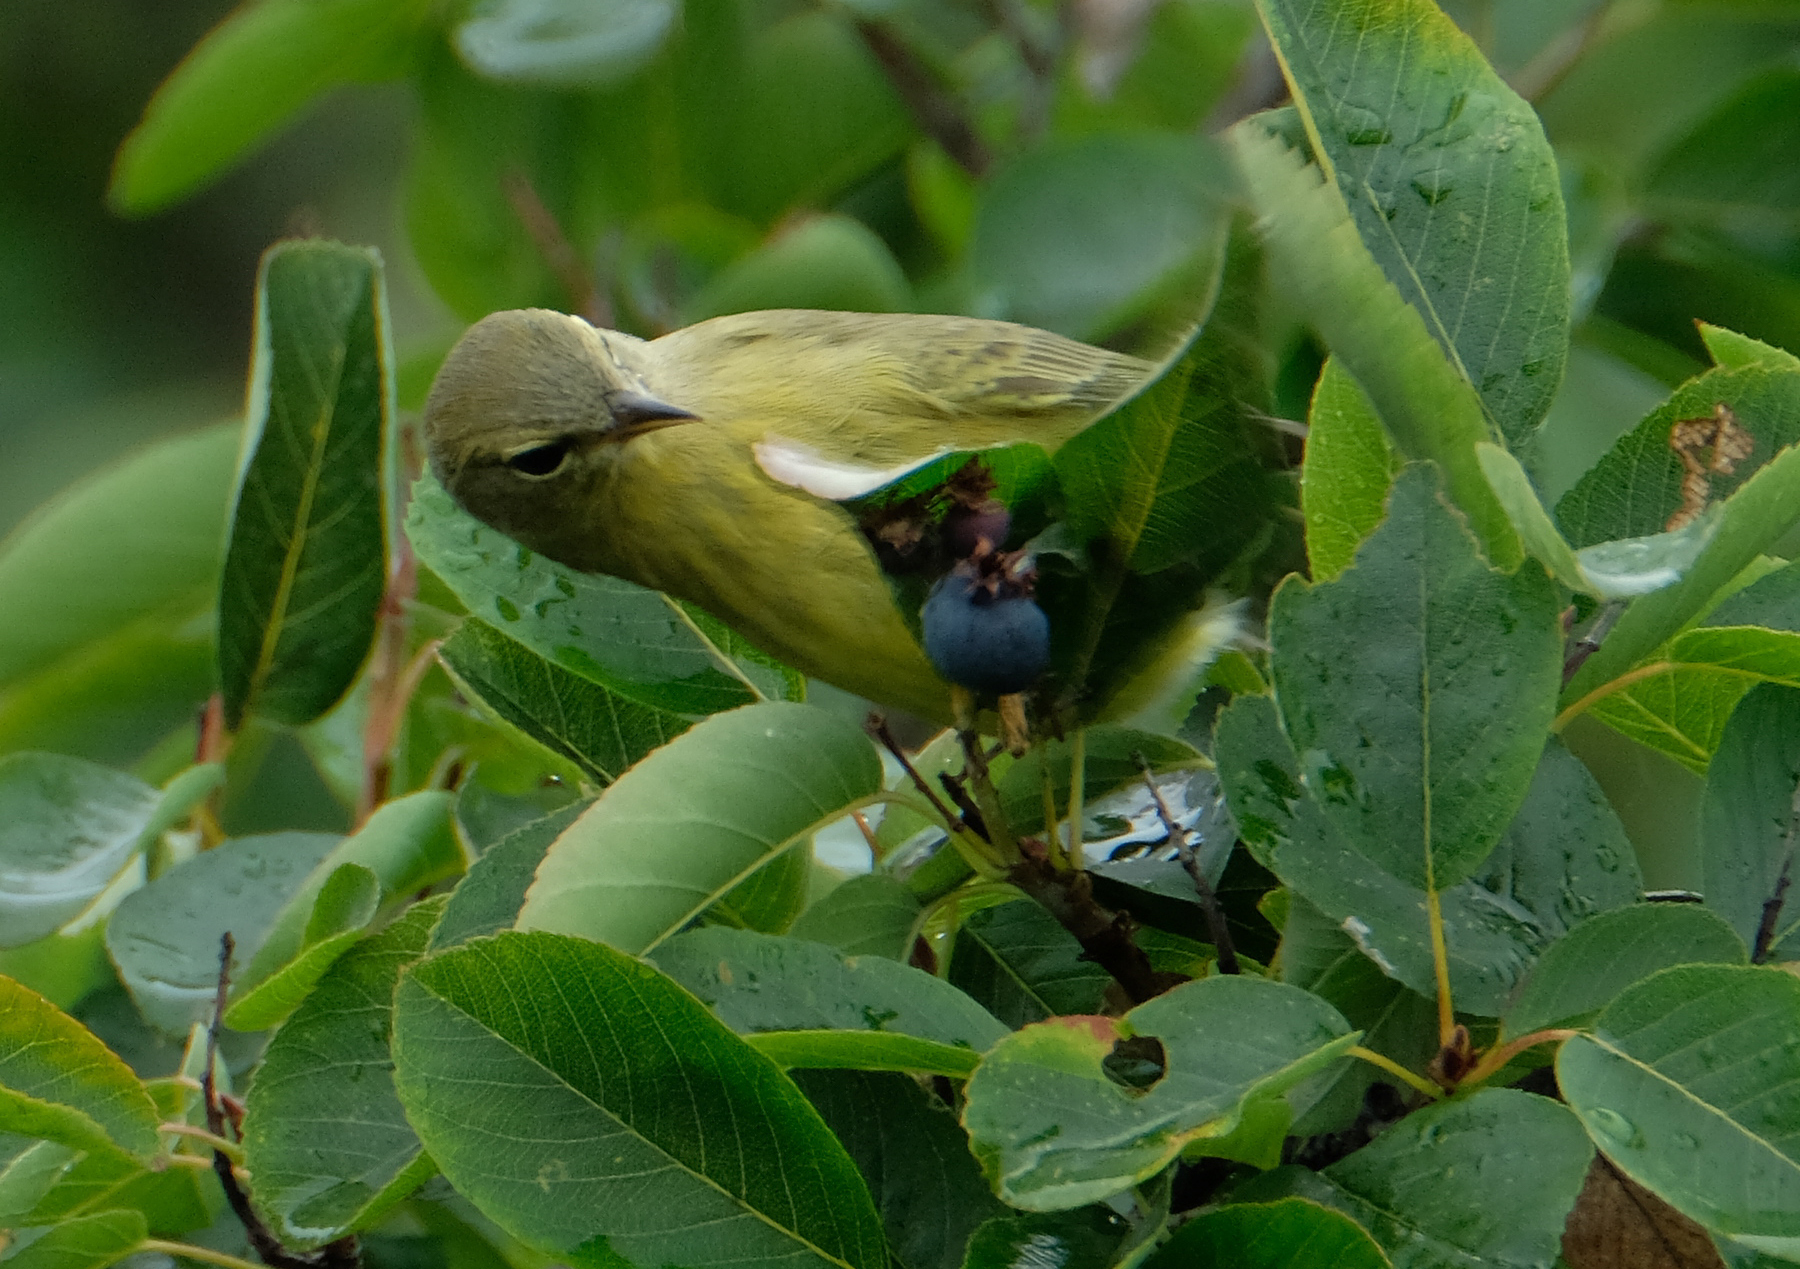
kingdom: Animalia
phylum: Chordata
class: Aves
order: Passeriformes
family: Parulidae
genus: Leiothlypis
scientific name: Leiothlypis celata
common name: Orange-crowned warbler
